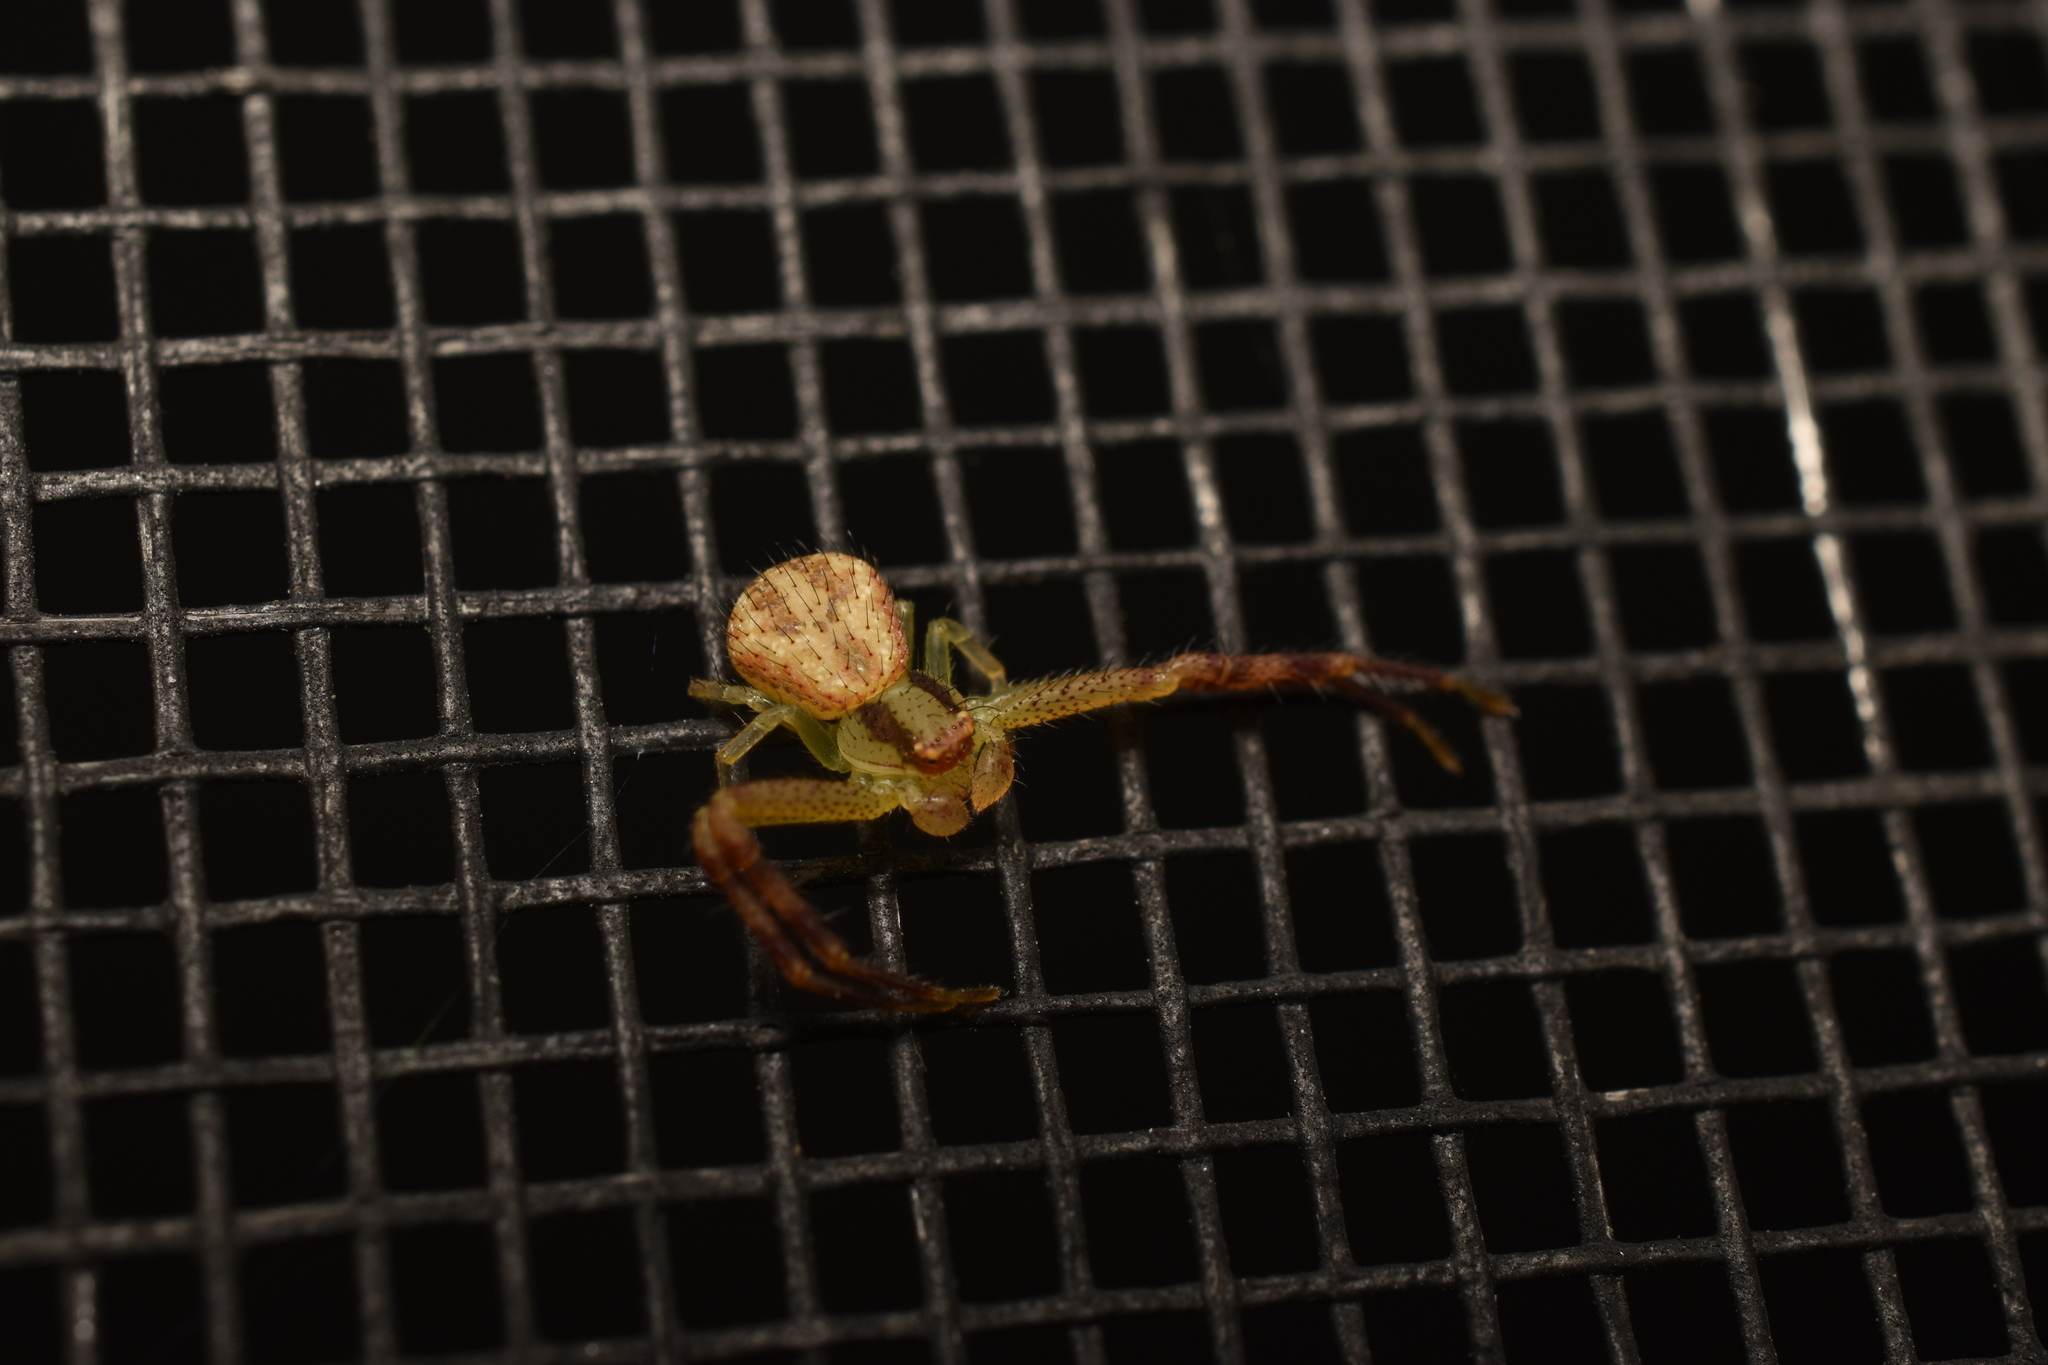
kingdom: Animalia
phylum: Arthropoda
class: Arachnida
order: Araneae
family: Thomisidae
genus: Mecaphesa
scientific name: Mecaphesa asperata
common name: Crab spiders
